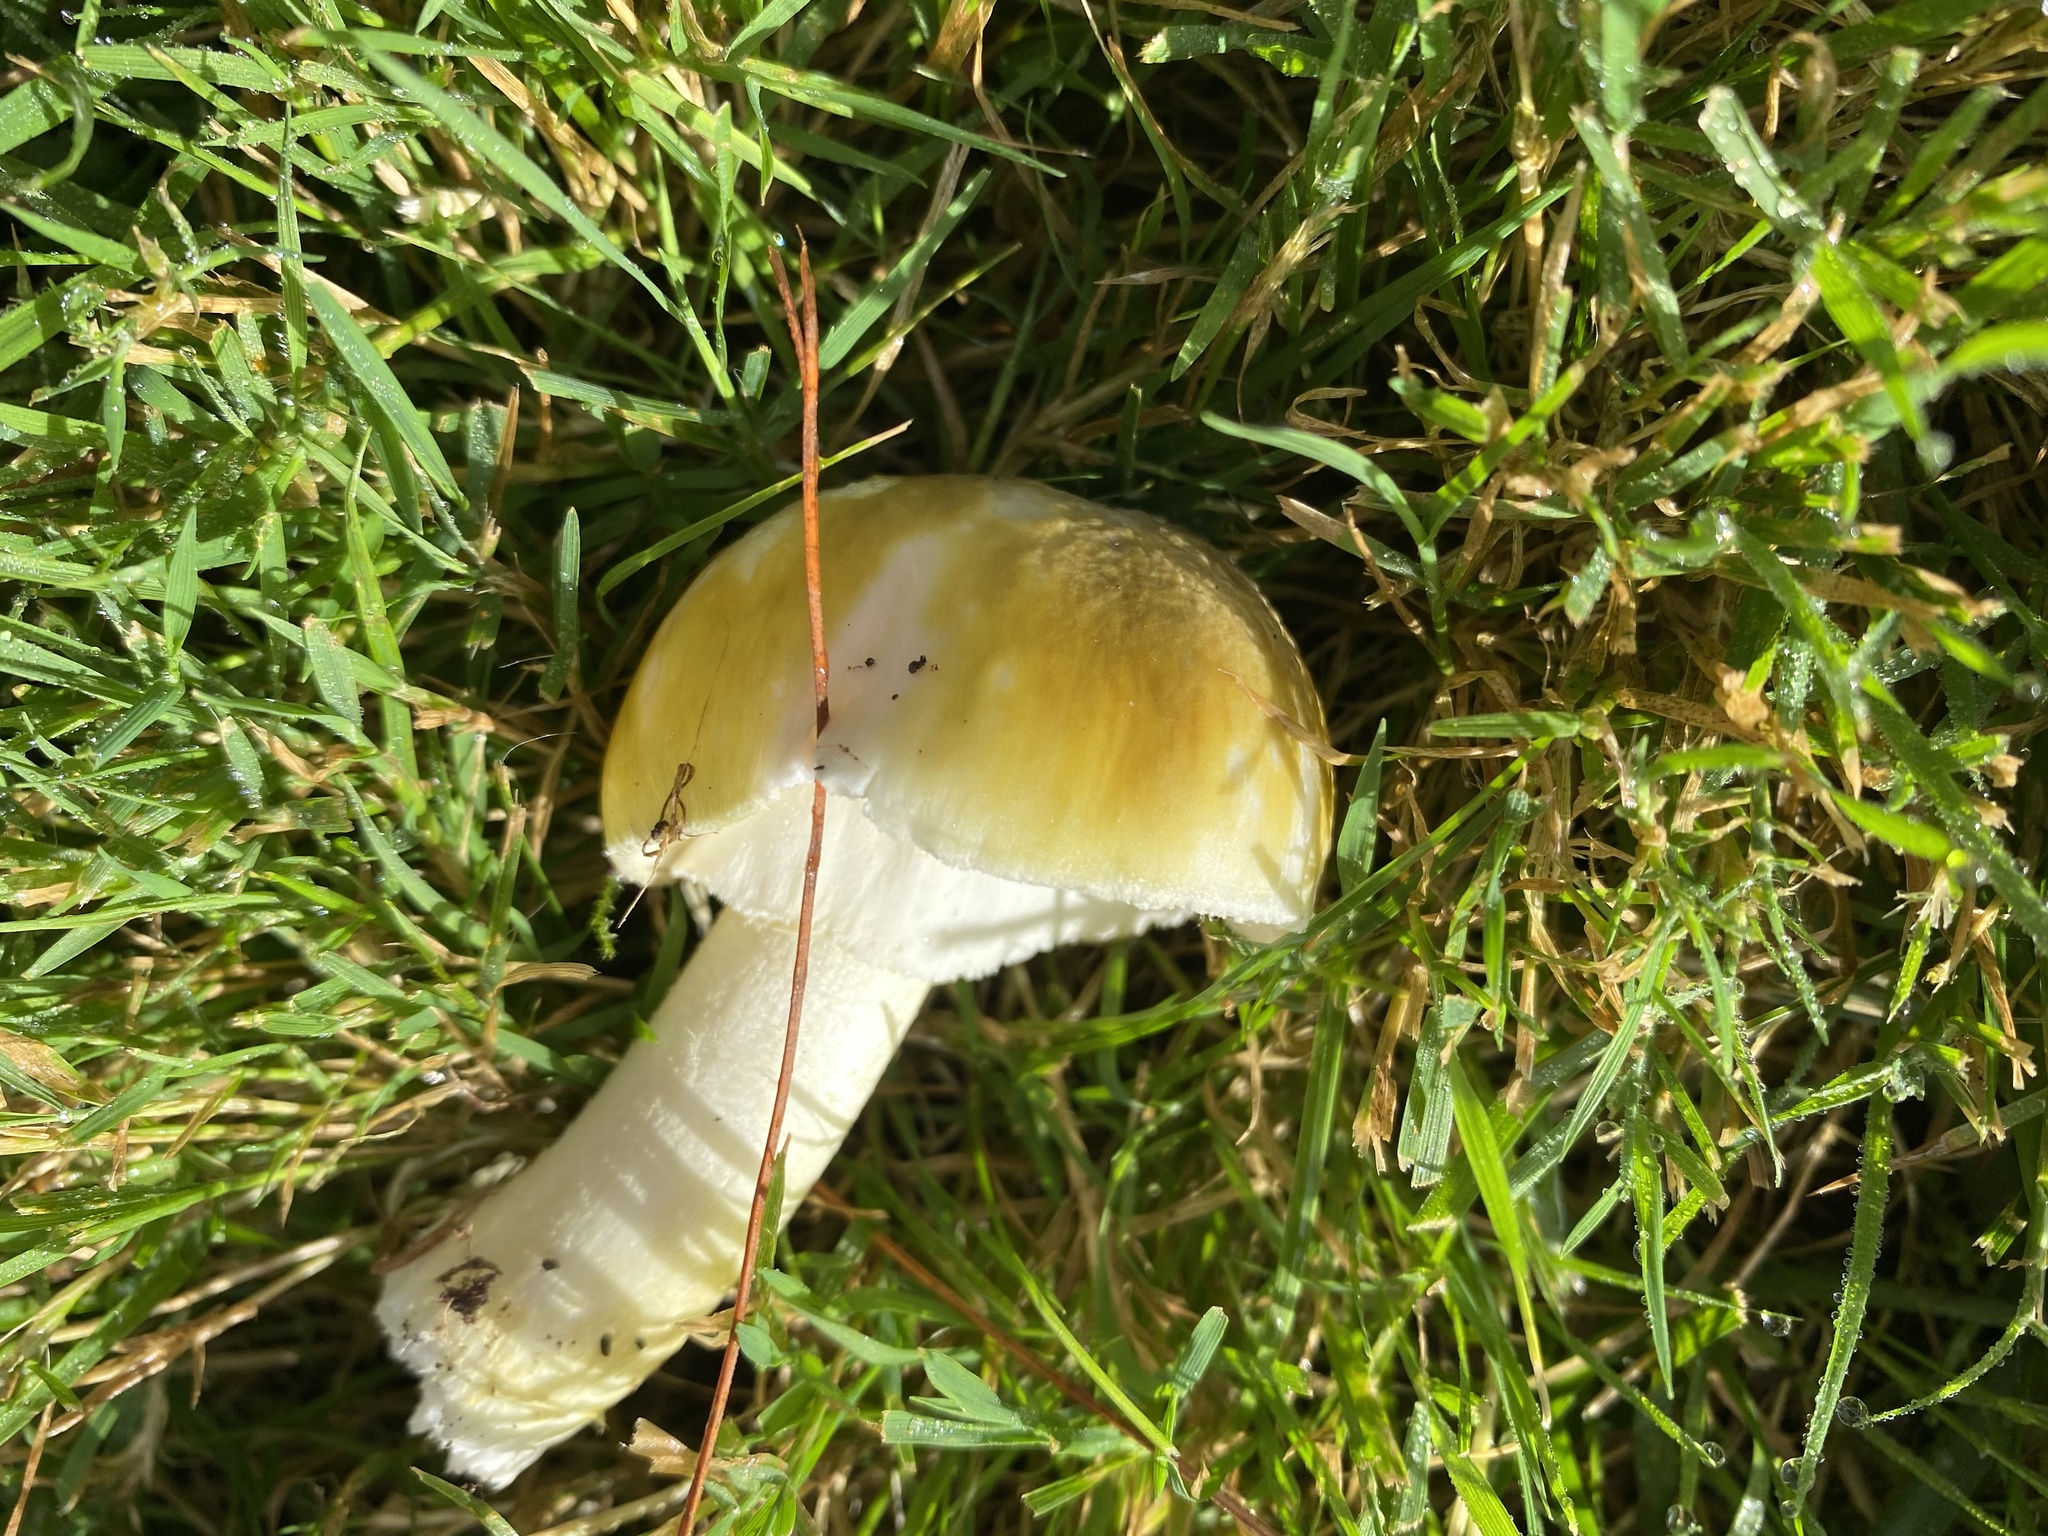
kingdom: Fungi
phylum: Basidiomycota
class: Agaricomycetes
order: Agaricales
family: Amanitaceae
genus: Amanita
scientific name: Amanita phalloides
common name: Death cap
